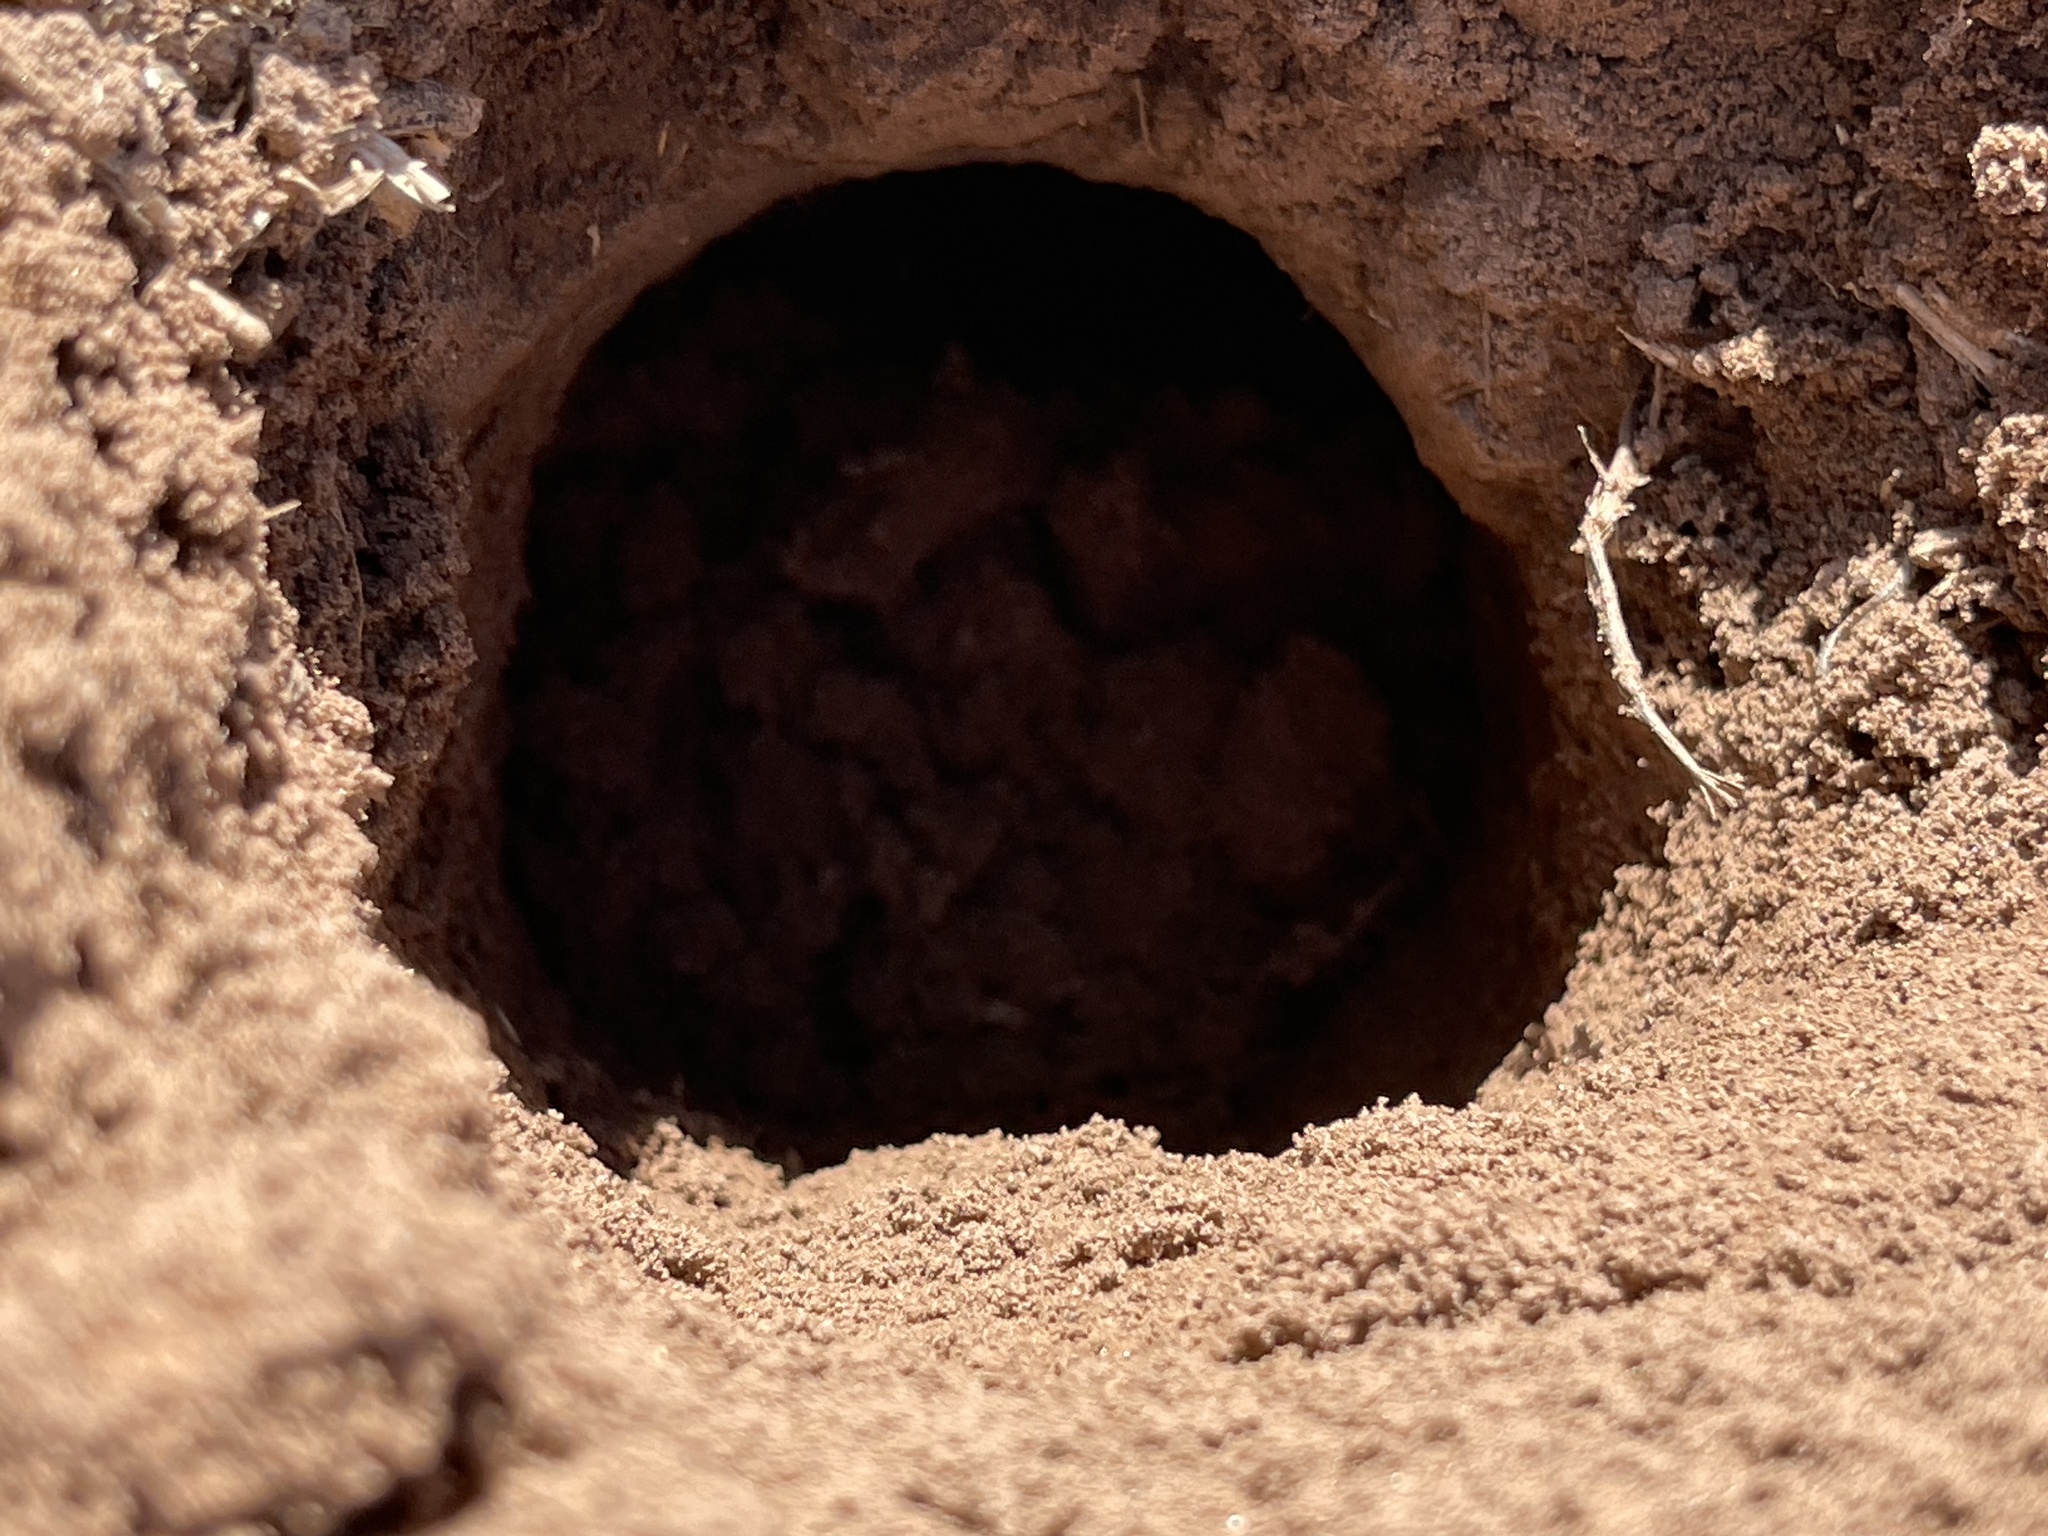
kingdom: Animalia
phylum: Chordata
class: Mammalia
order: Rodentia
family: Geomyidae
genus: Geomys
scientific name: Geomys bursarius
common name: Plains pocket gopher
